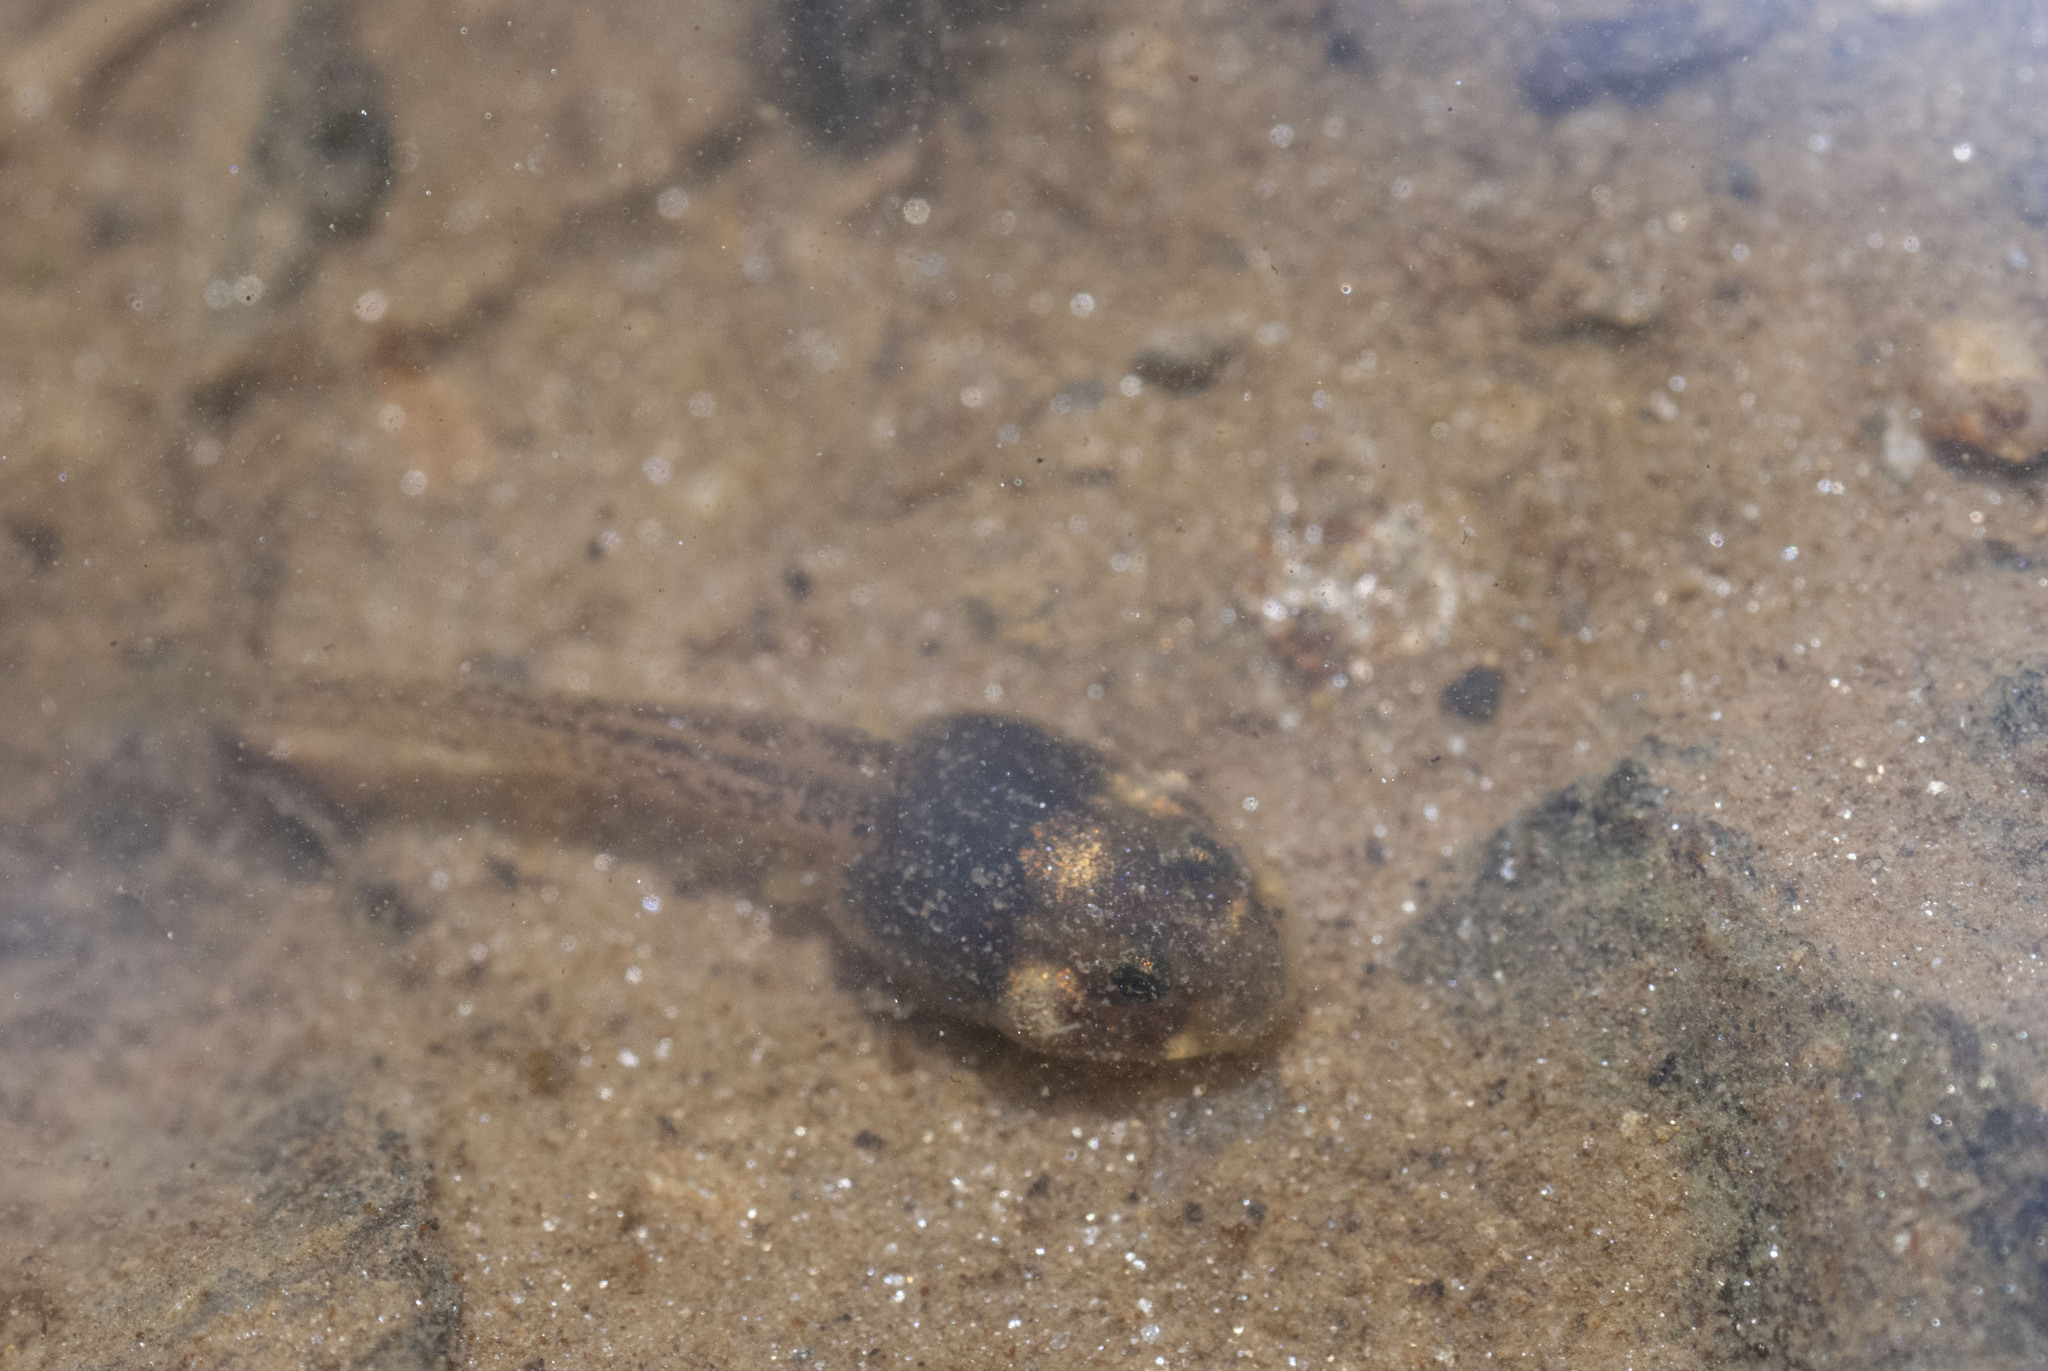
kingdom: Animalia
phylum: Chordata
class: Amphibia
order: Anura
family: Dendrobatidae
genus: Colostethus
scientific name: Colostethus ruthveni
